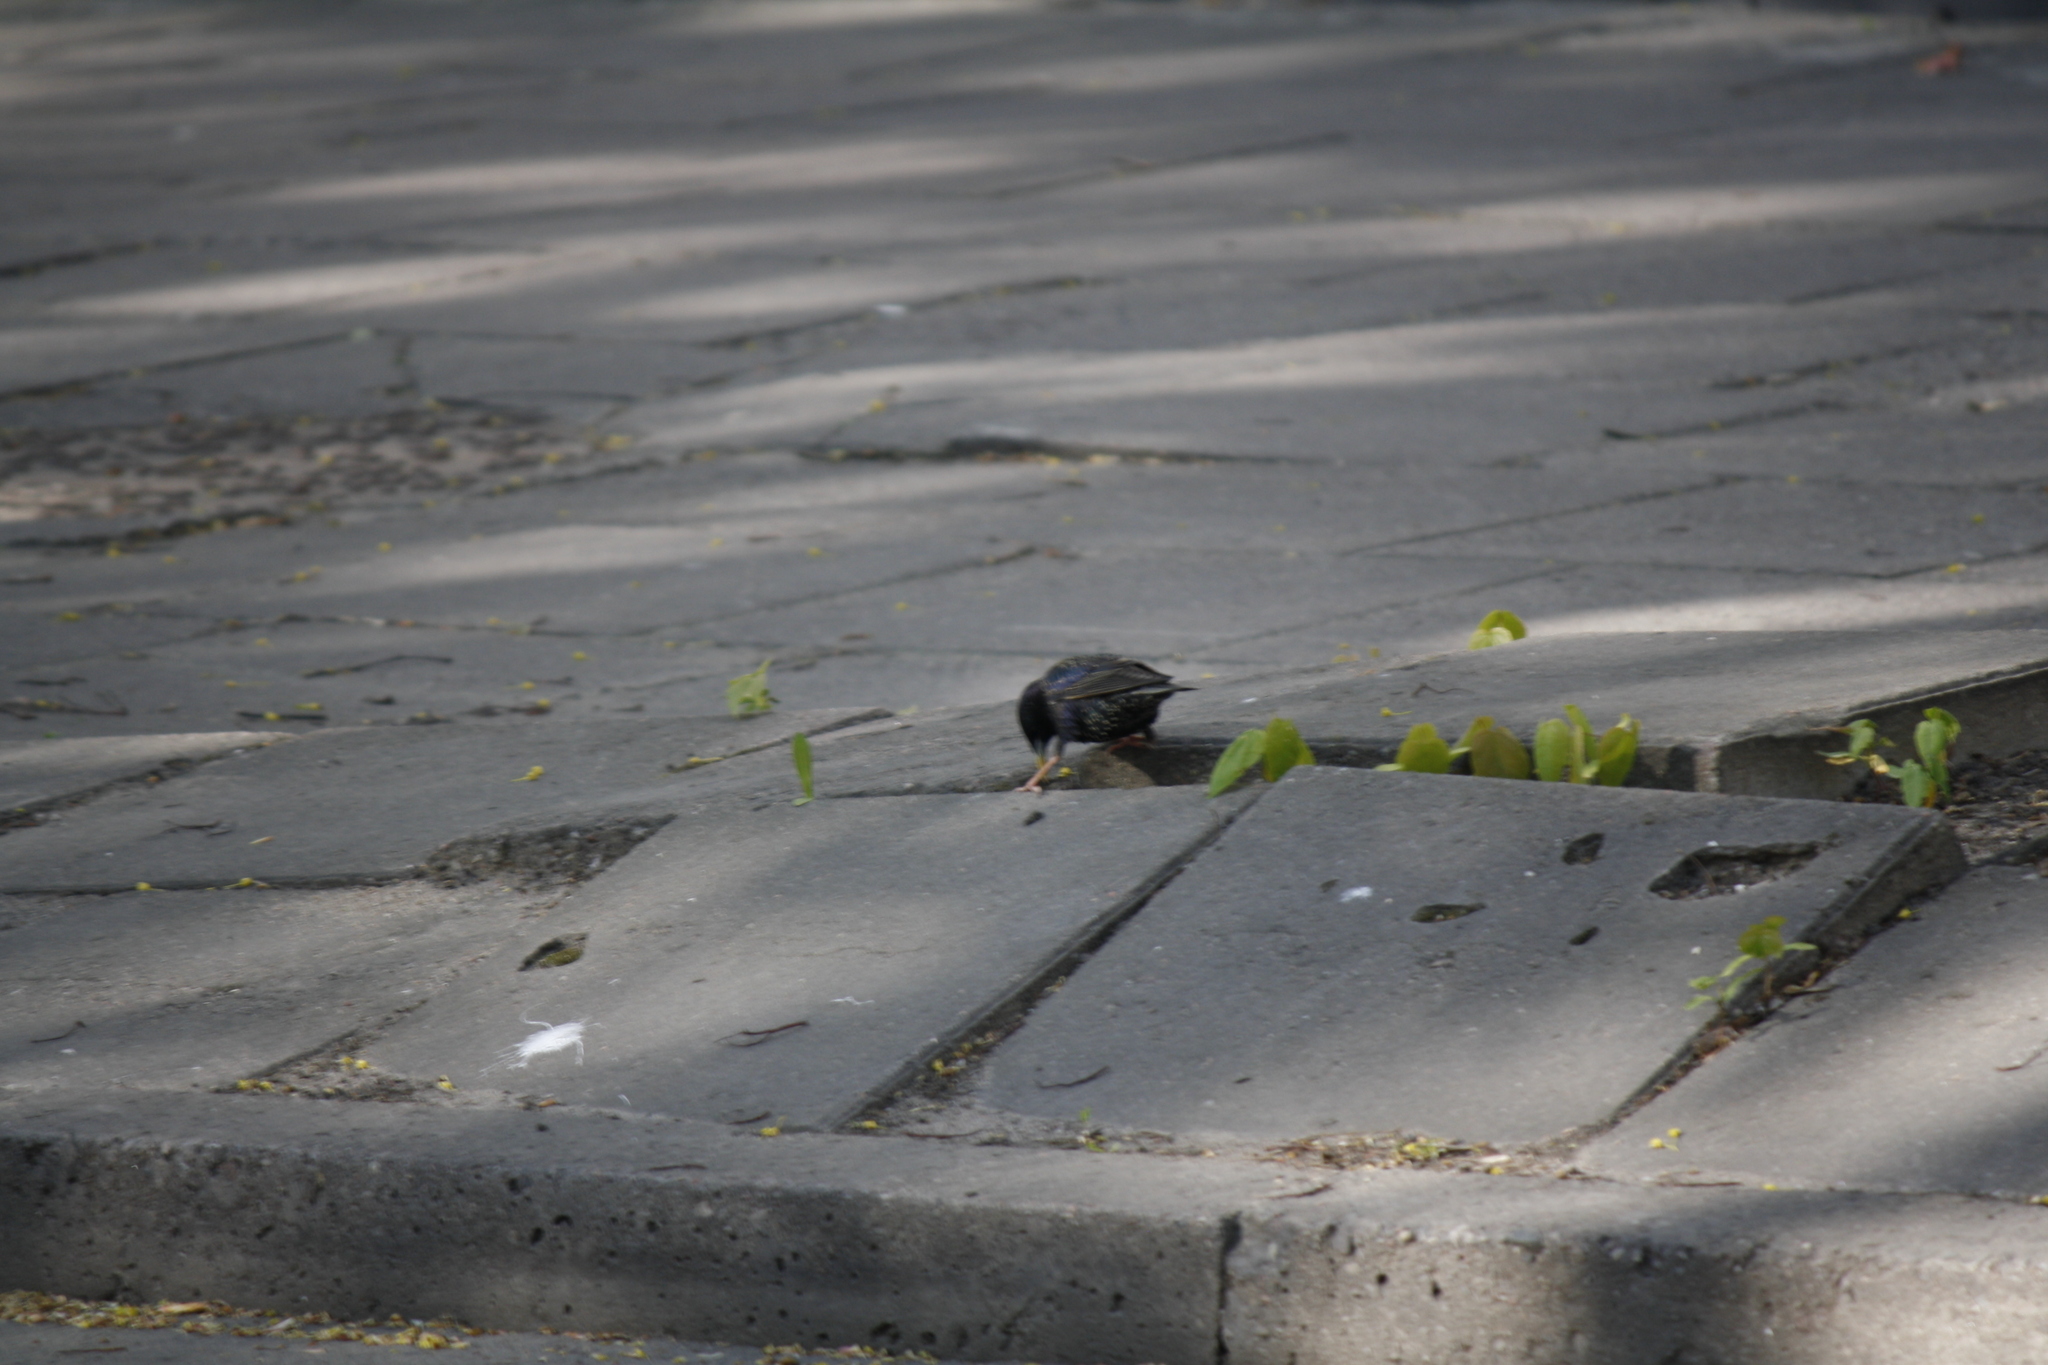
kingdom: Animalia
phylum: Chordata
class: Aves
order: Passeriformes
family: Sturnidae
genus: Sturnus
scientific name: Sturnus vulgaris
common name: Common starling
